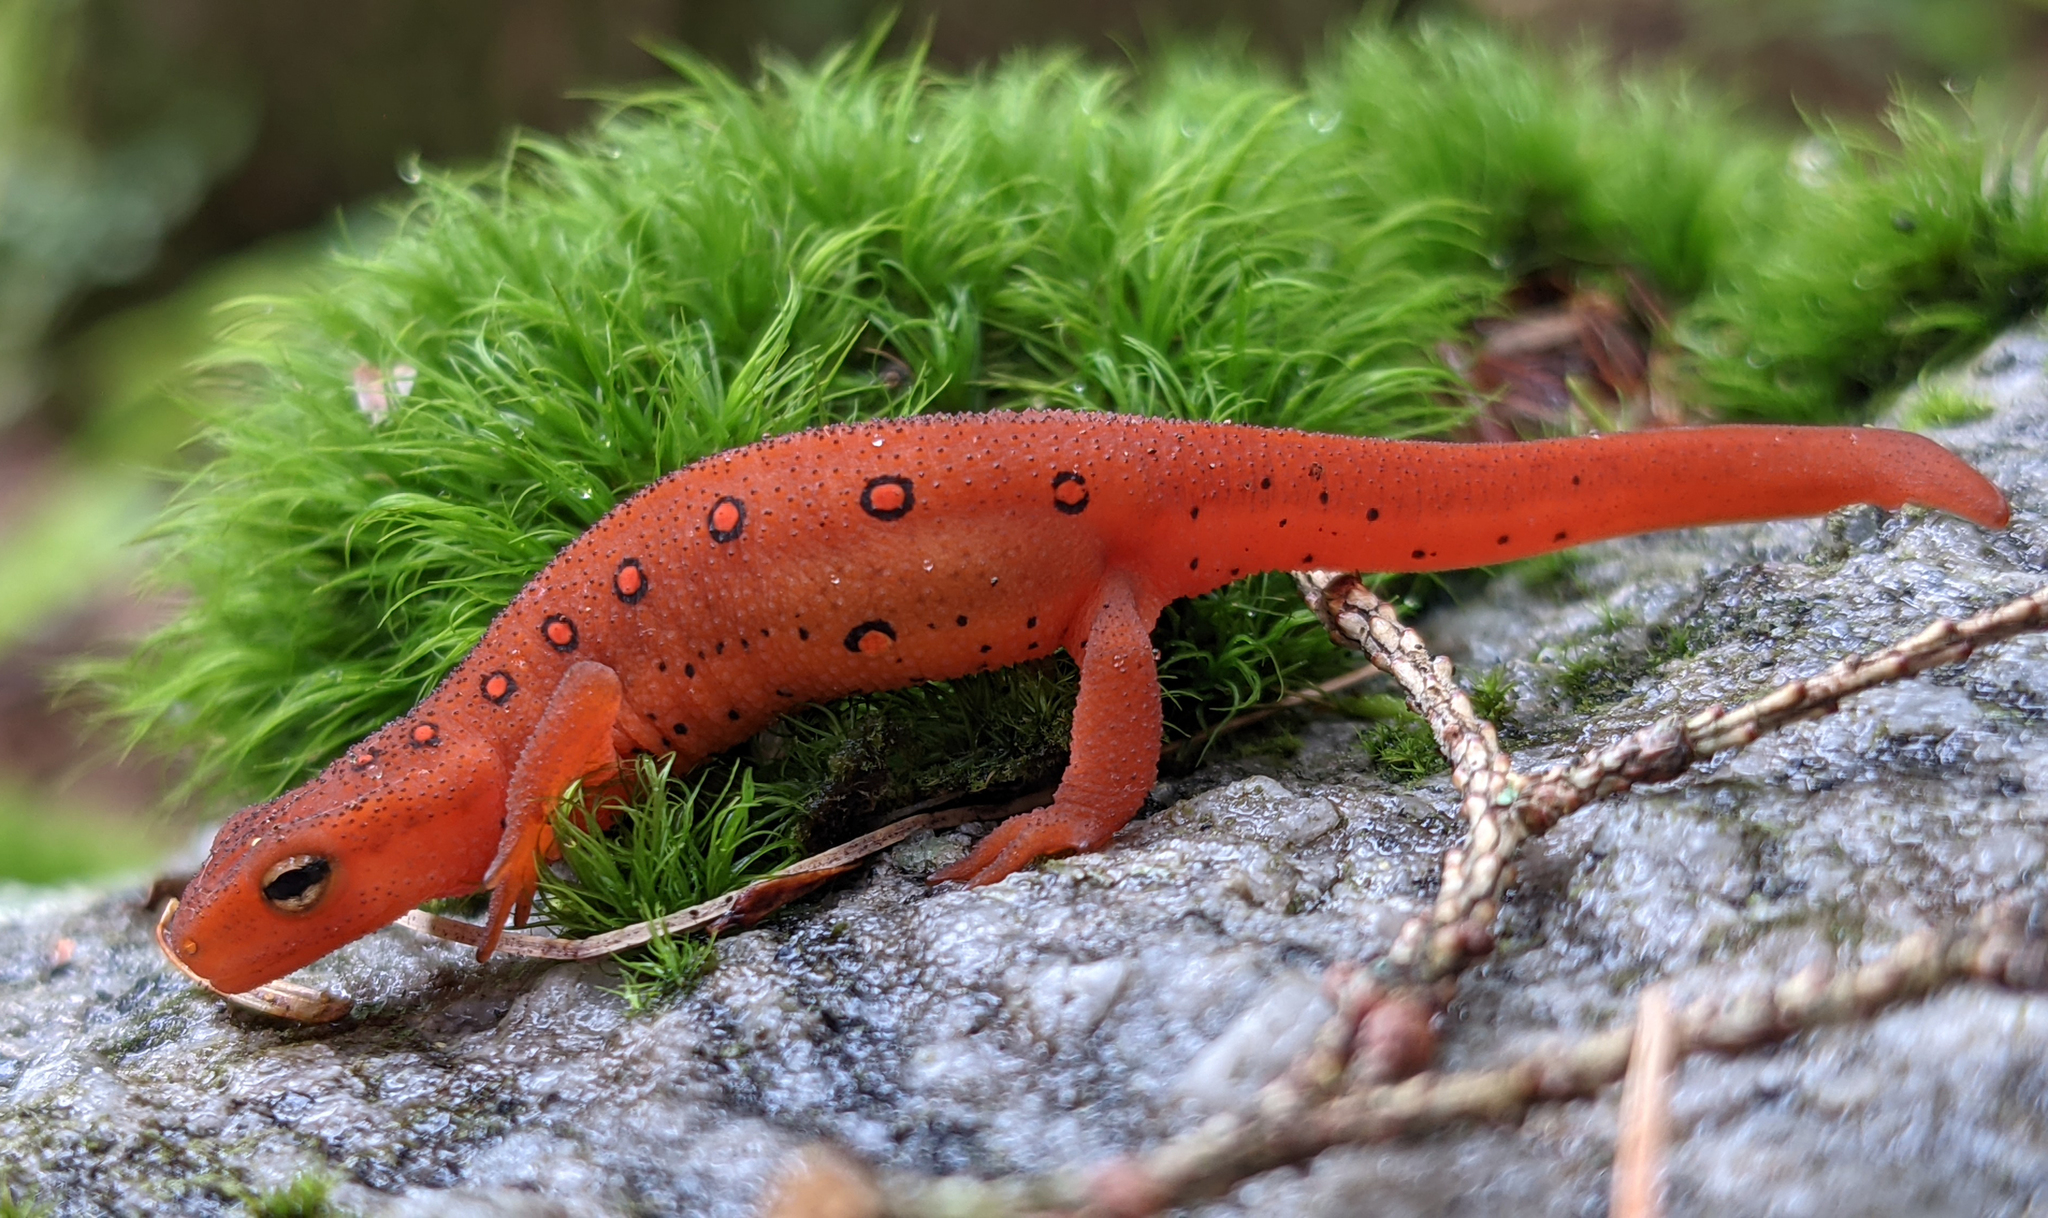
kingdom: Animalia
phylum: Chordata
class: Amphibia
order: Caudata
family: Salamandridae
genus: Notophthalmus
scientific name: Notophthalmus viridescens
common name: Eastern newt
